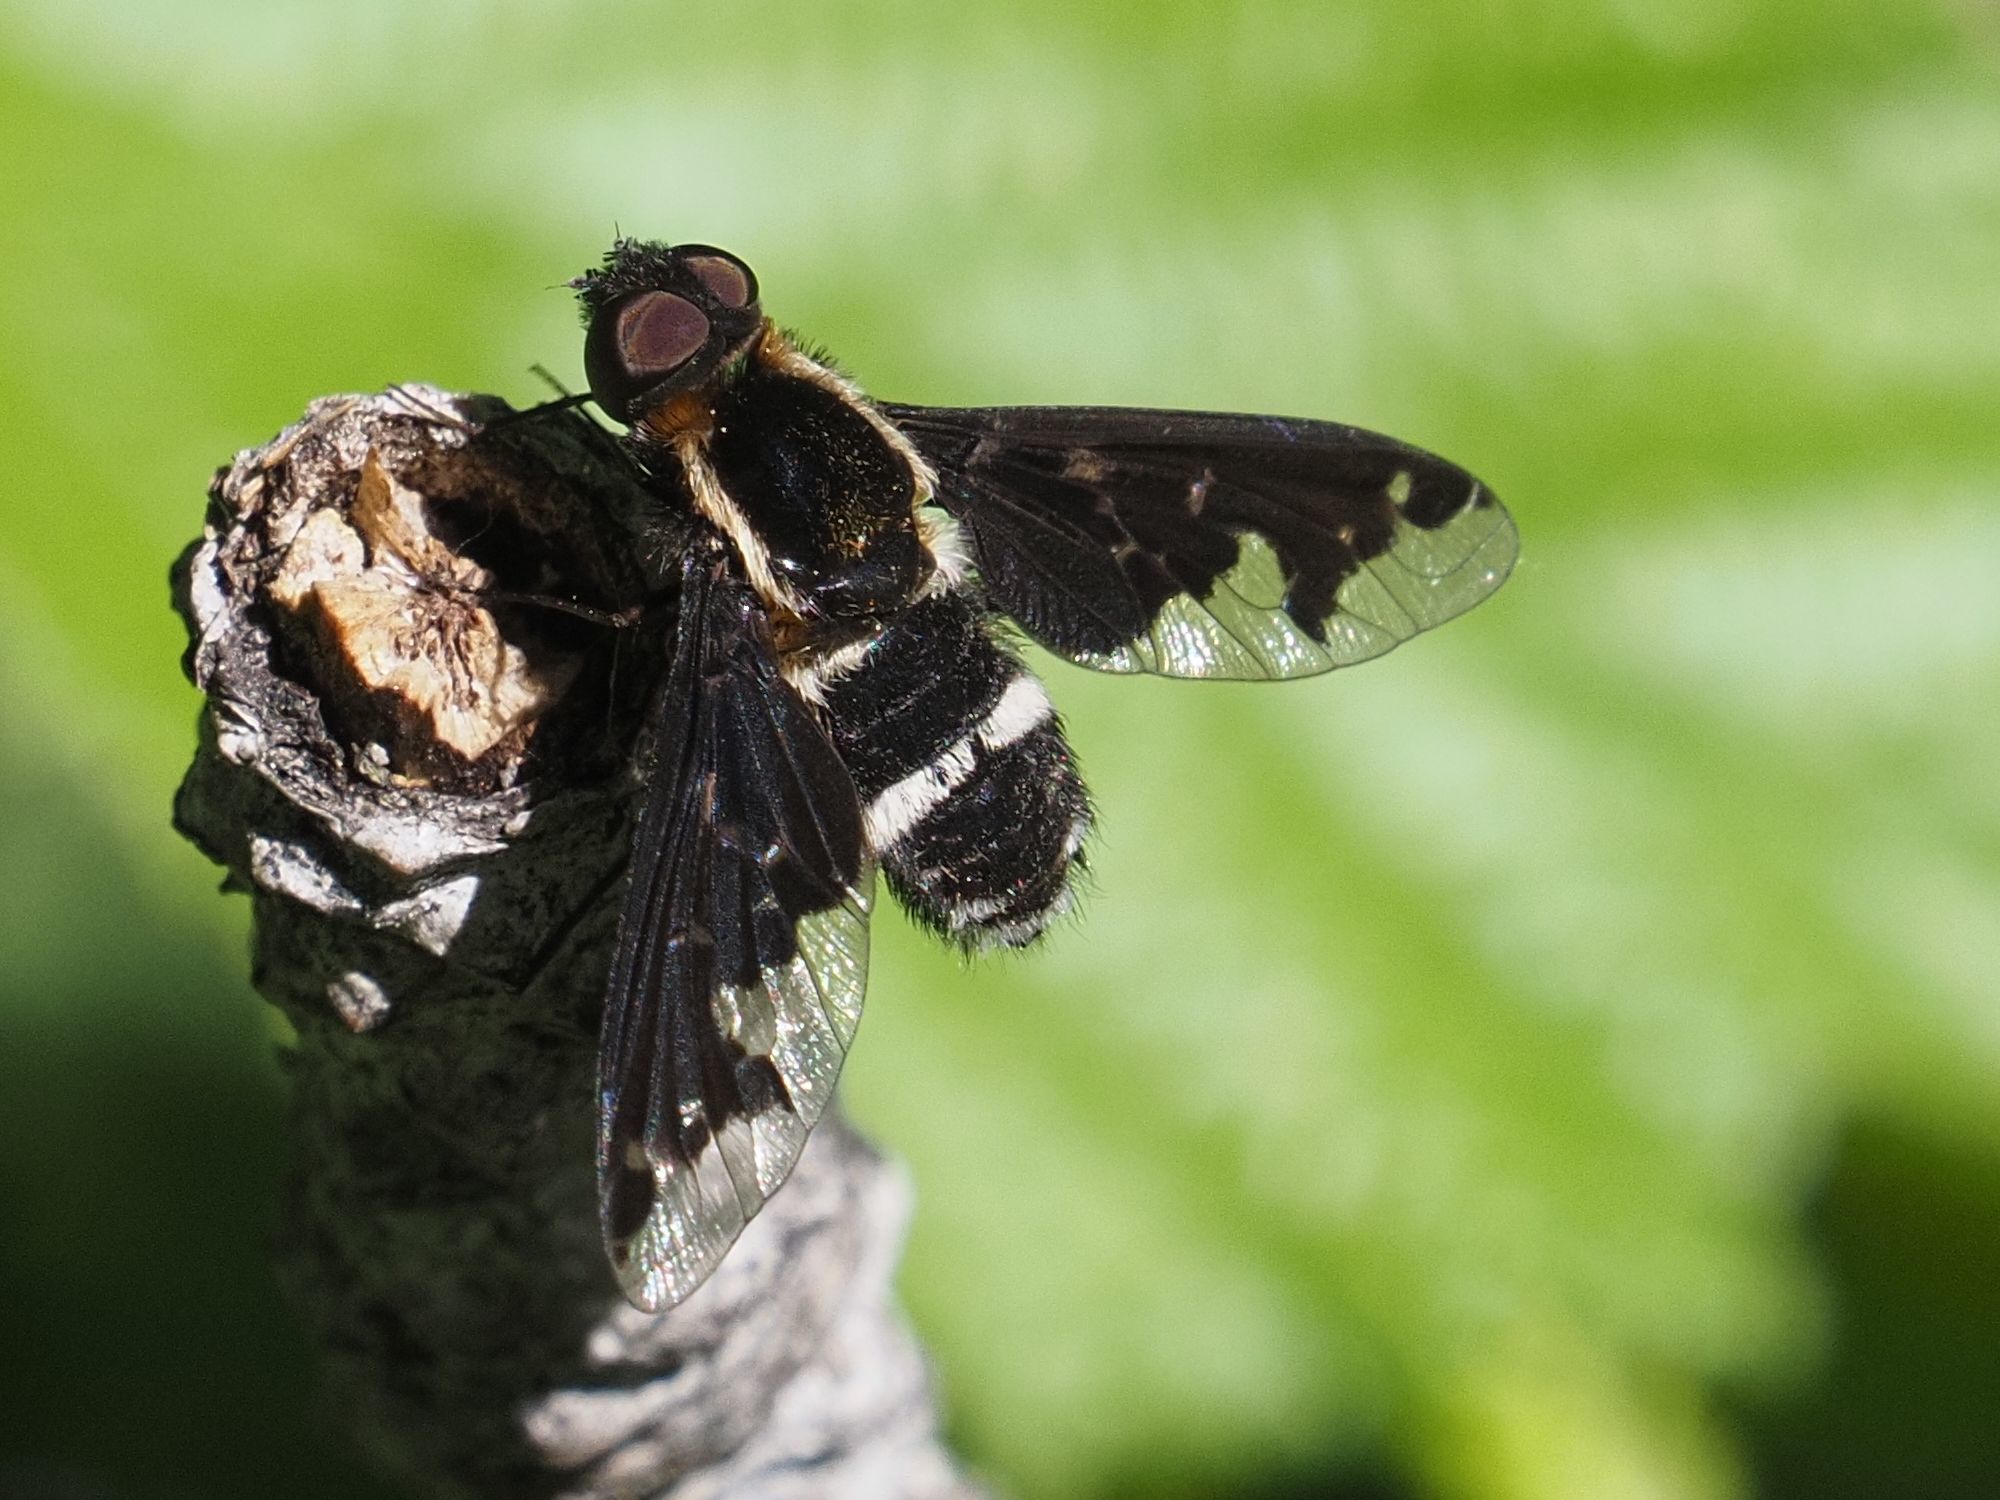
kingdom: Animalia
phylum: Arthropoda
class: Insecta
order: Diptera
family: Bombyliidae
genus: Hemipenthes
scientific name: Hemipenthes maura
